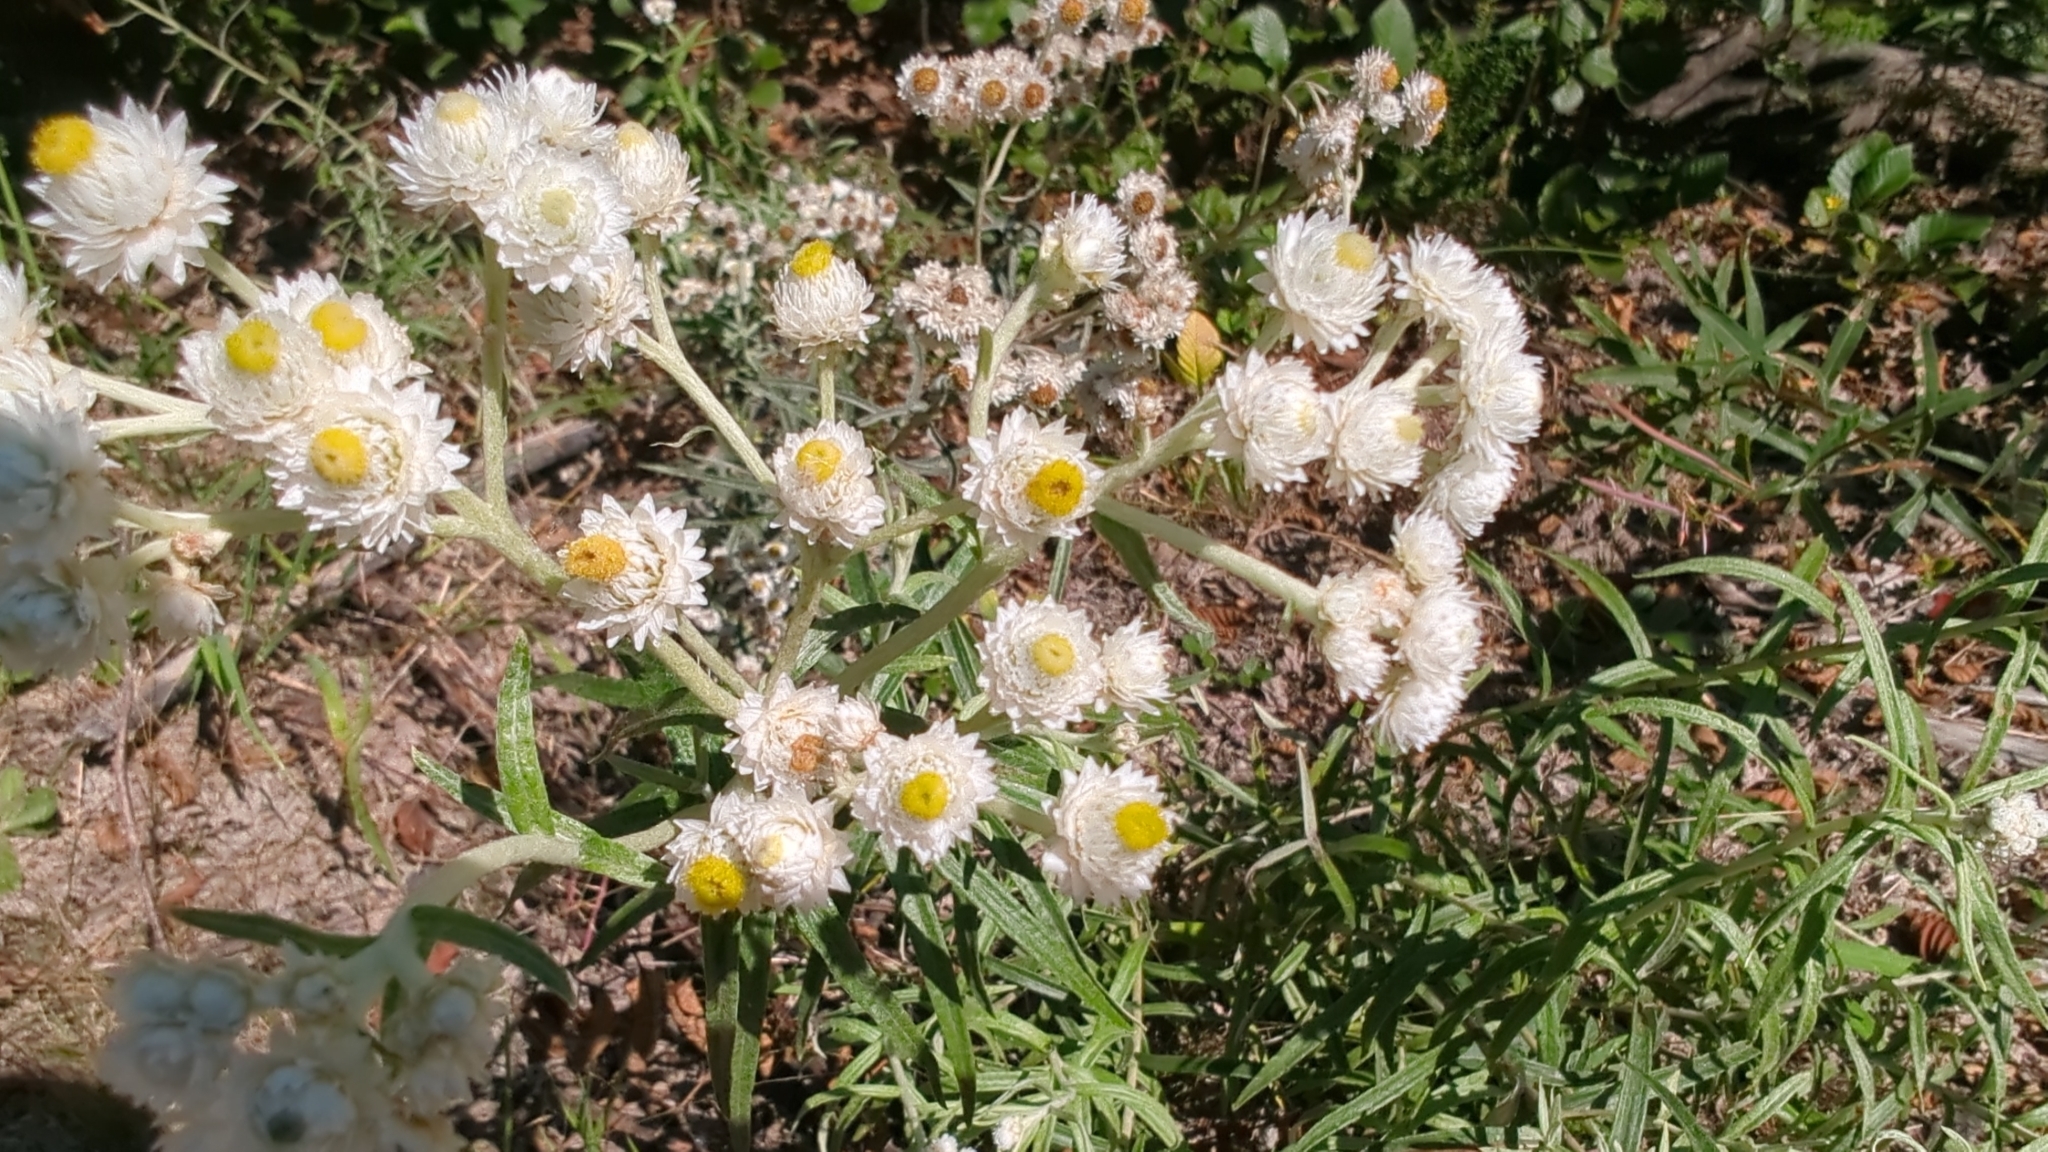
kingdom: Plantae
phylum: Tracheophyta
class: Magnoliopsida
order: Asterales
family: Asteraceae
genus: Anaphalis
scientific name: Anaphalis margaritacea
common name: Pearly everlasting
